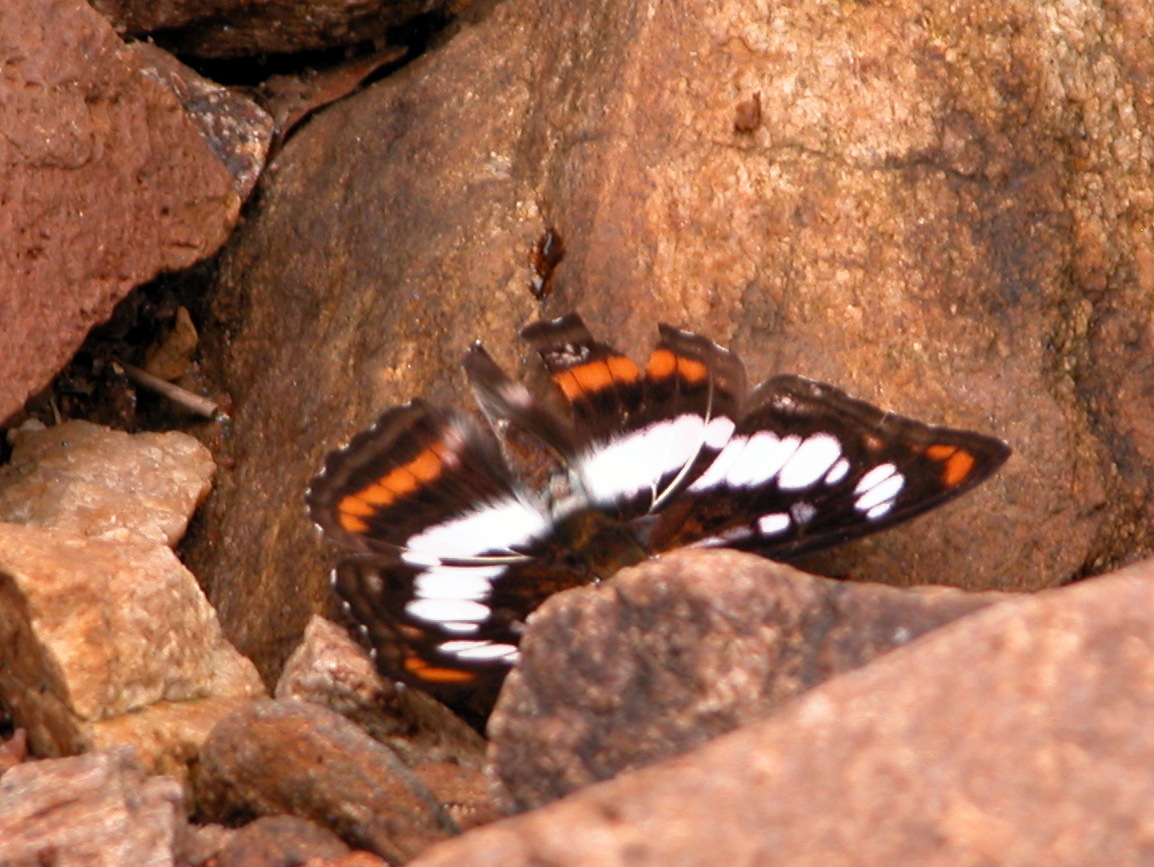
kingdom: Animalia
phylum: Arthropoda
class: Insecta
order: Lepidoptera
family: Nymphalidae
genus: Parathyma
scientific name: Parathyma nefte
